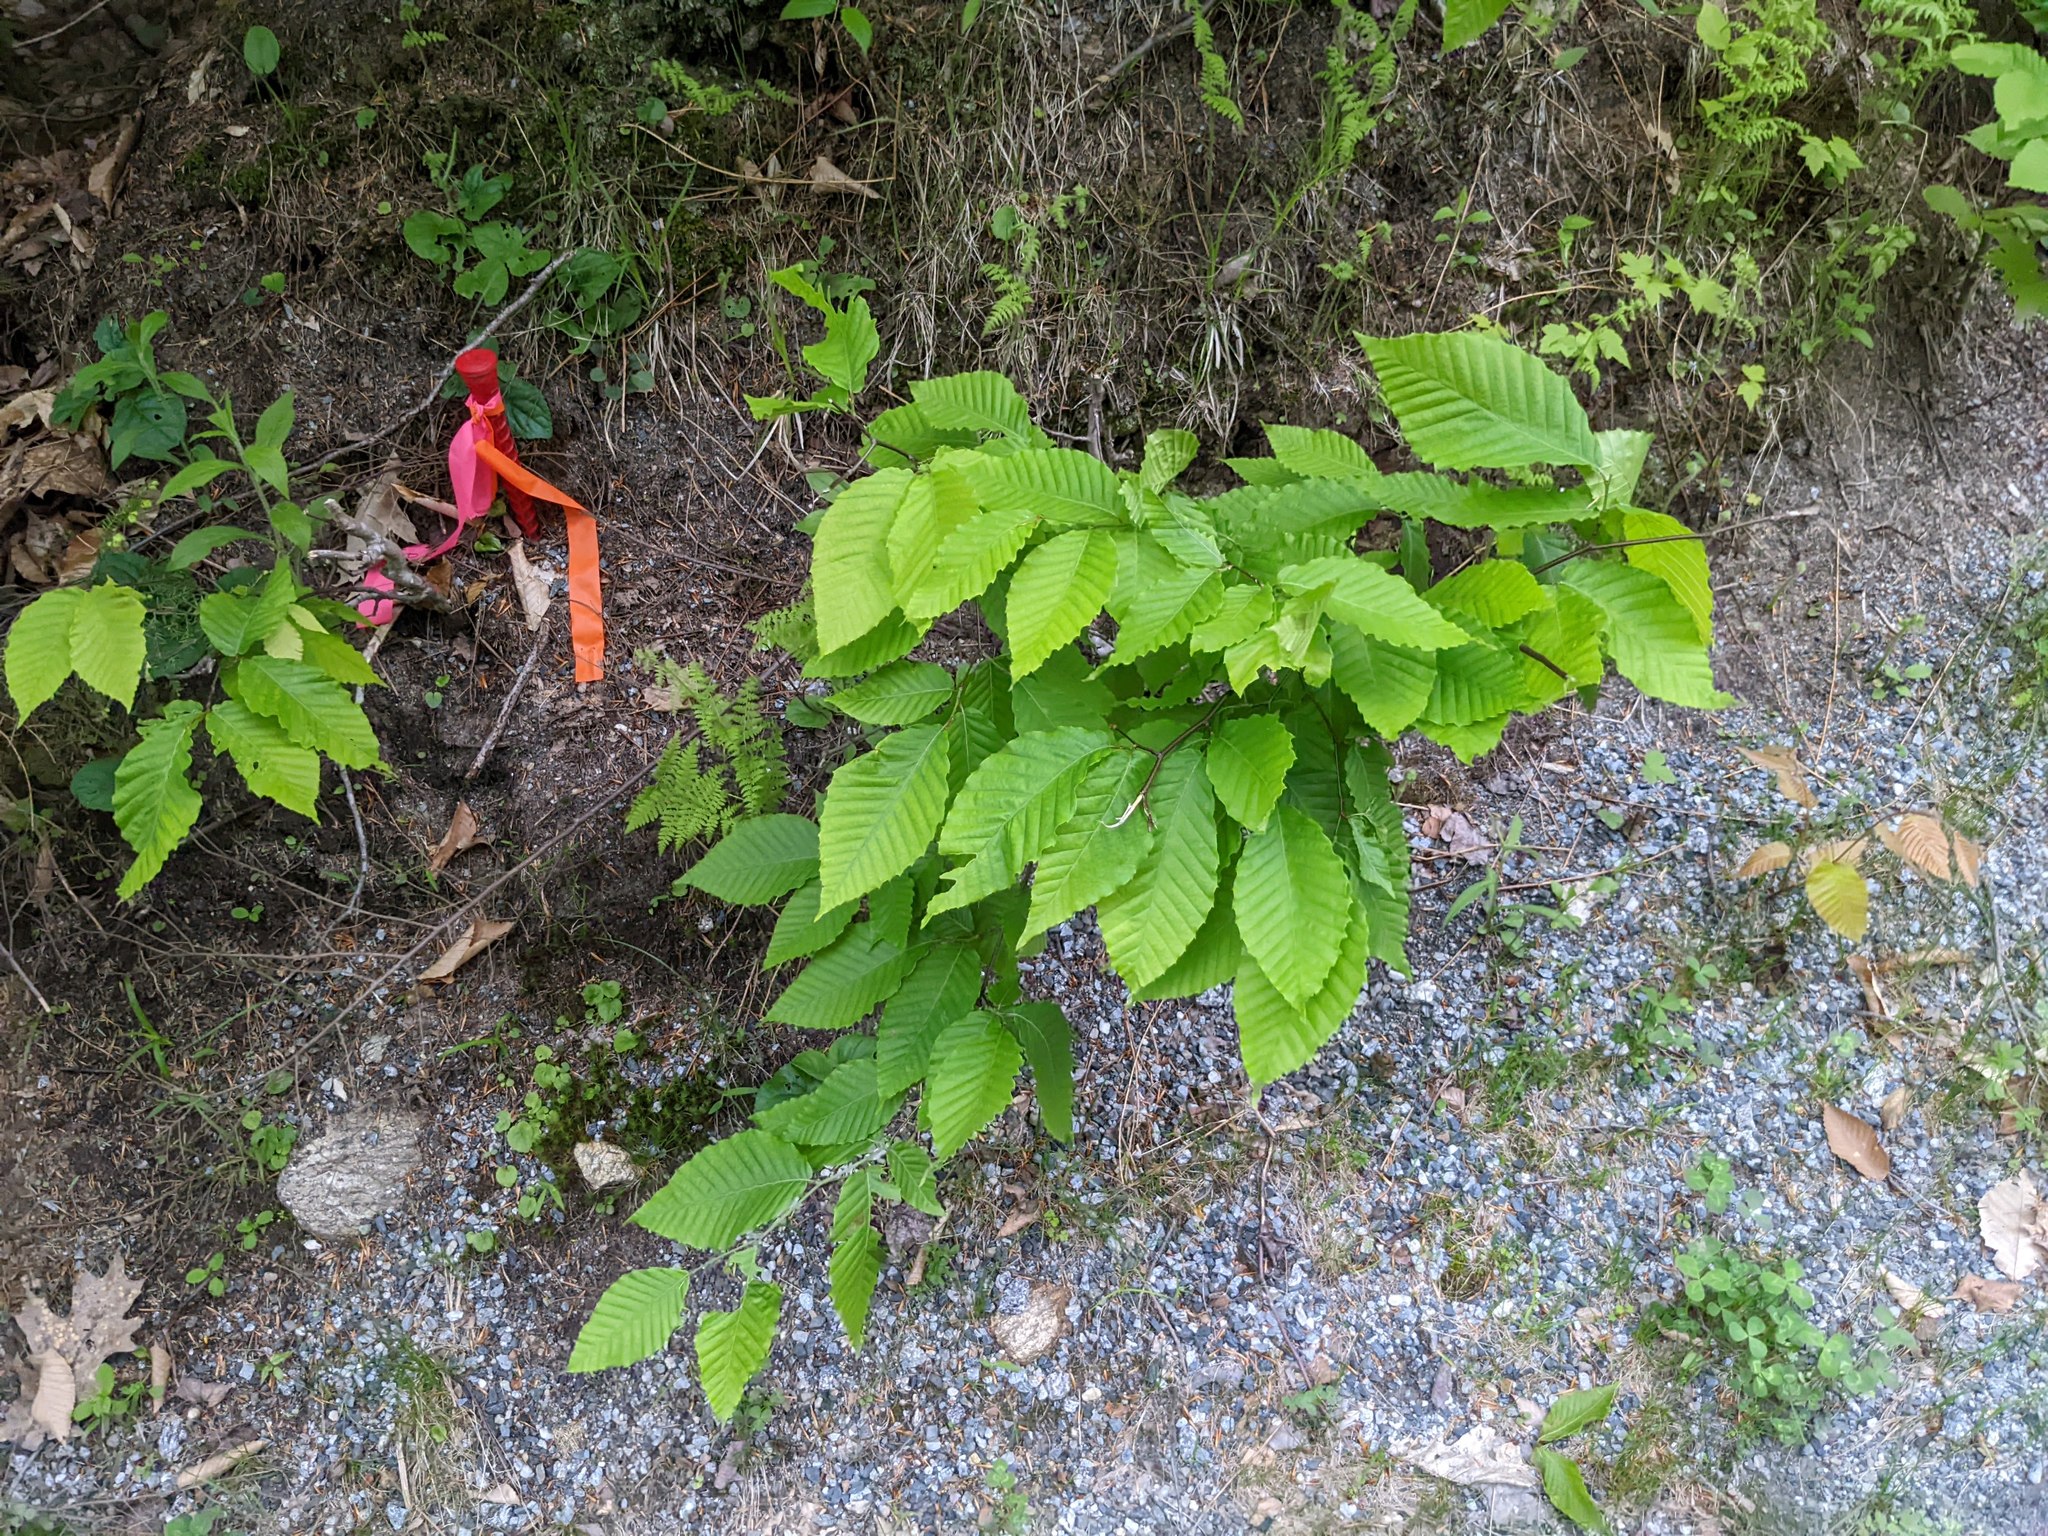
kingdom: Plantae
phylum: Tracheophyta
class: Magnoliopsida
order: Fagales
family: Fagaceae
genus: Fagus
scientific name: Fagus grandifolia
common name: American beech
